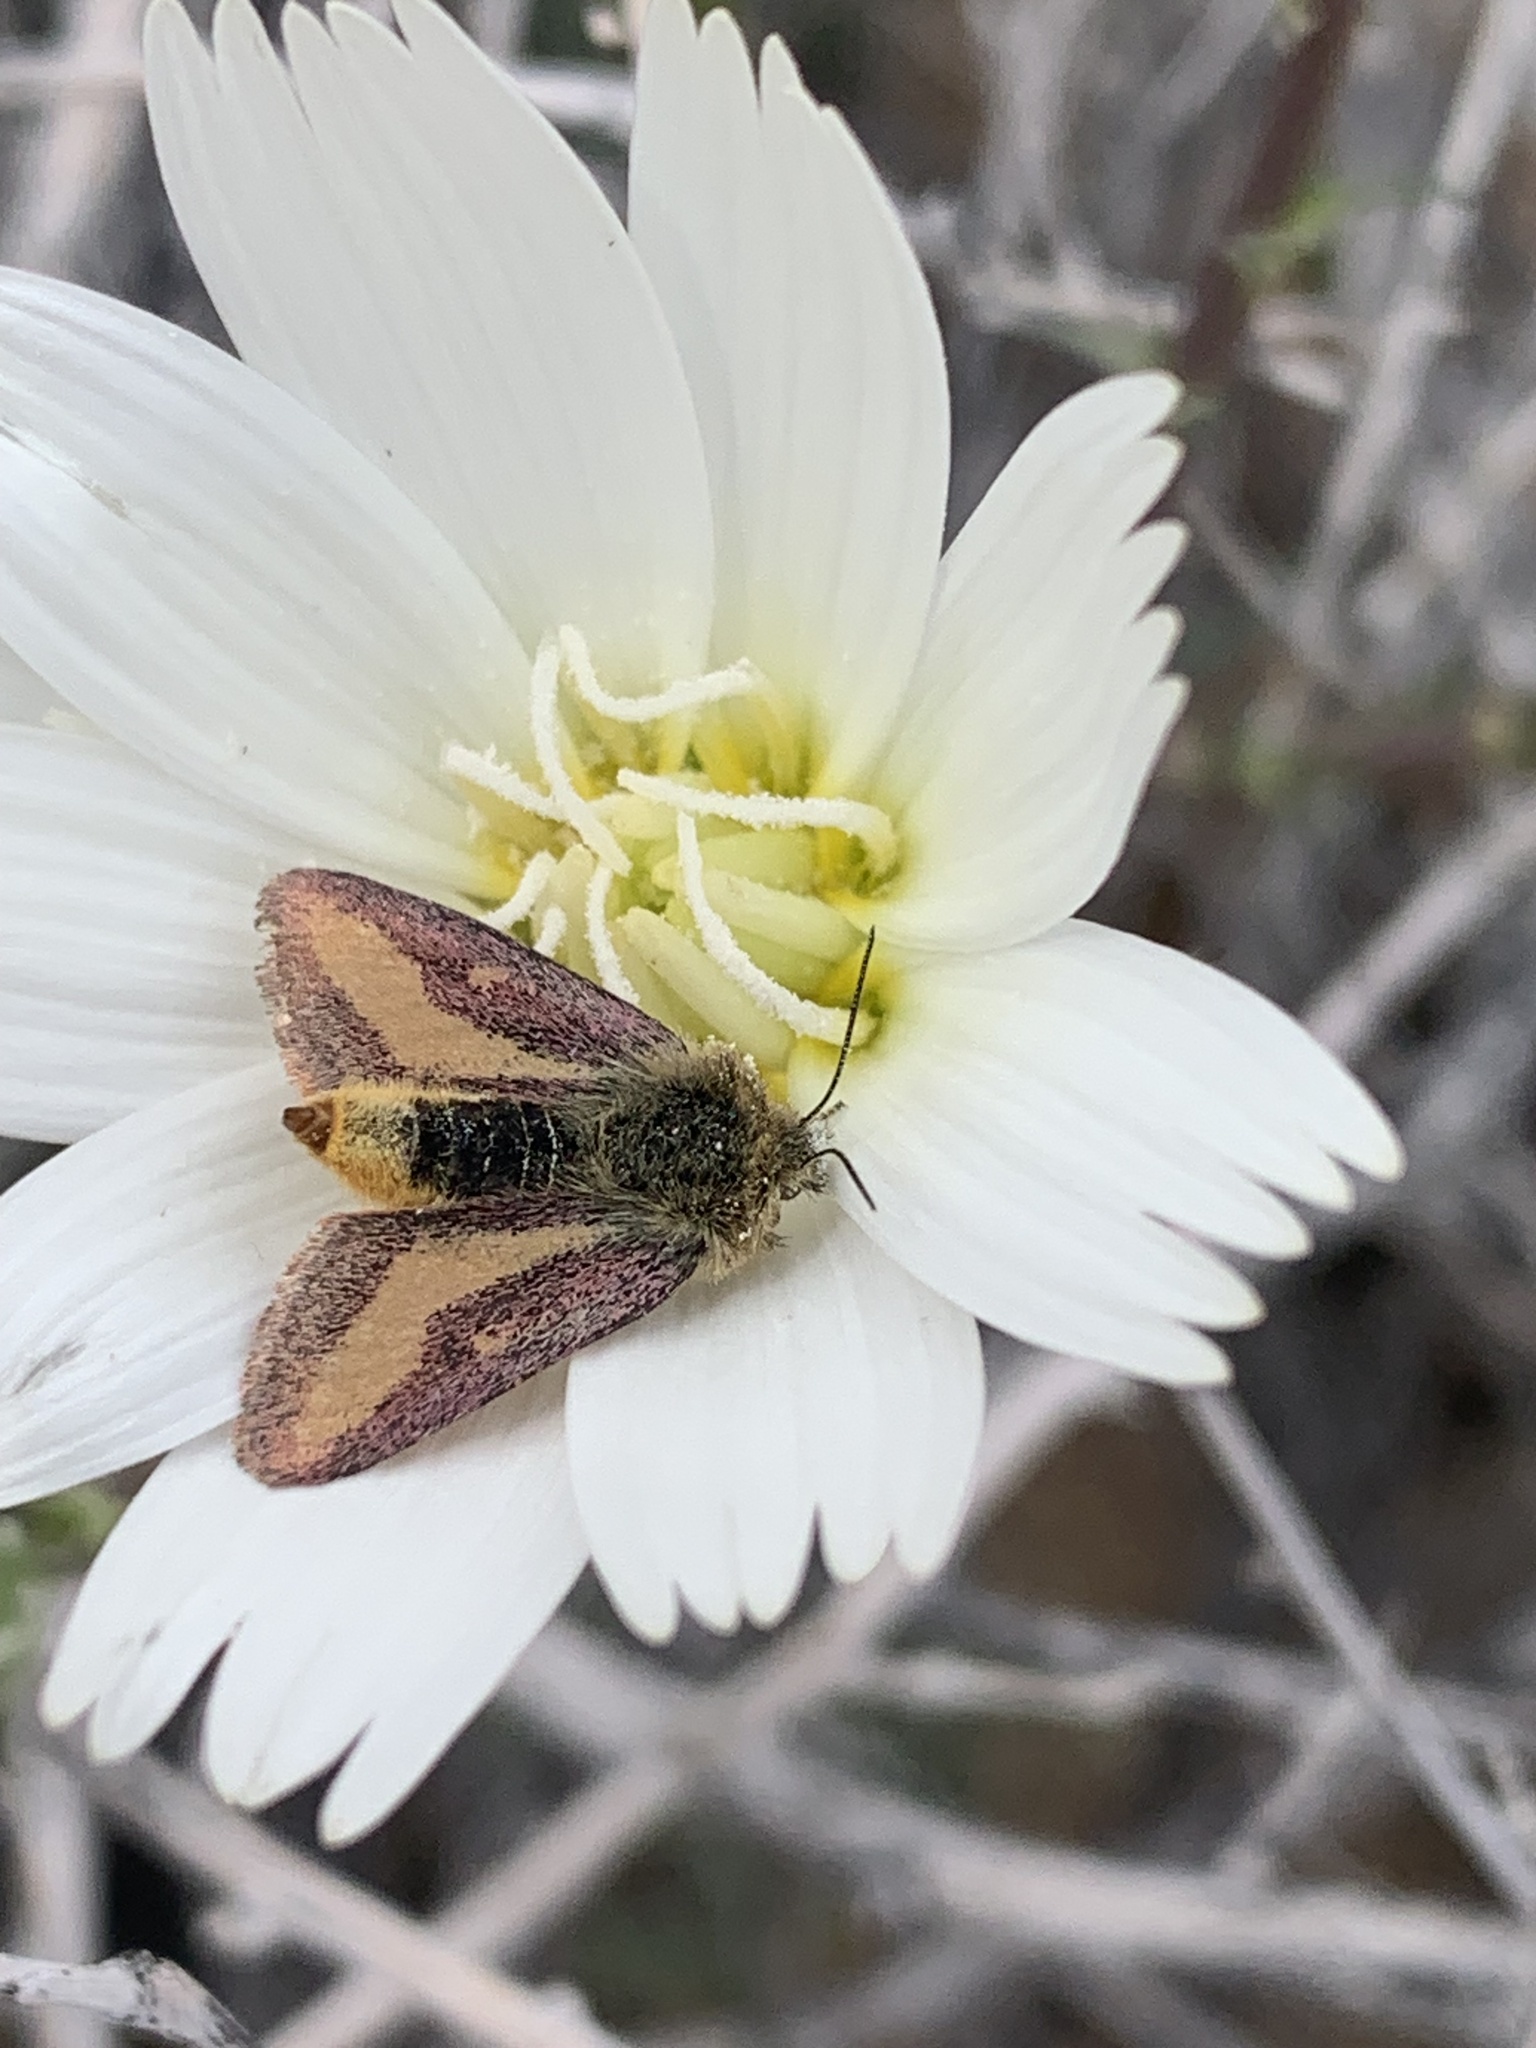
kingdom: Animalia
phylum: Arthropoda
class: Insecta
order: Lepidoptera
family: Noctuidae
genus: Heliolonche
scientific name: Heliolonche carolus
